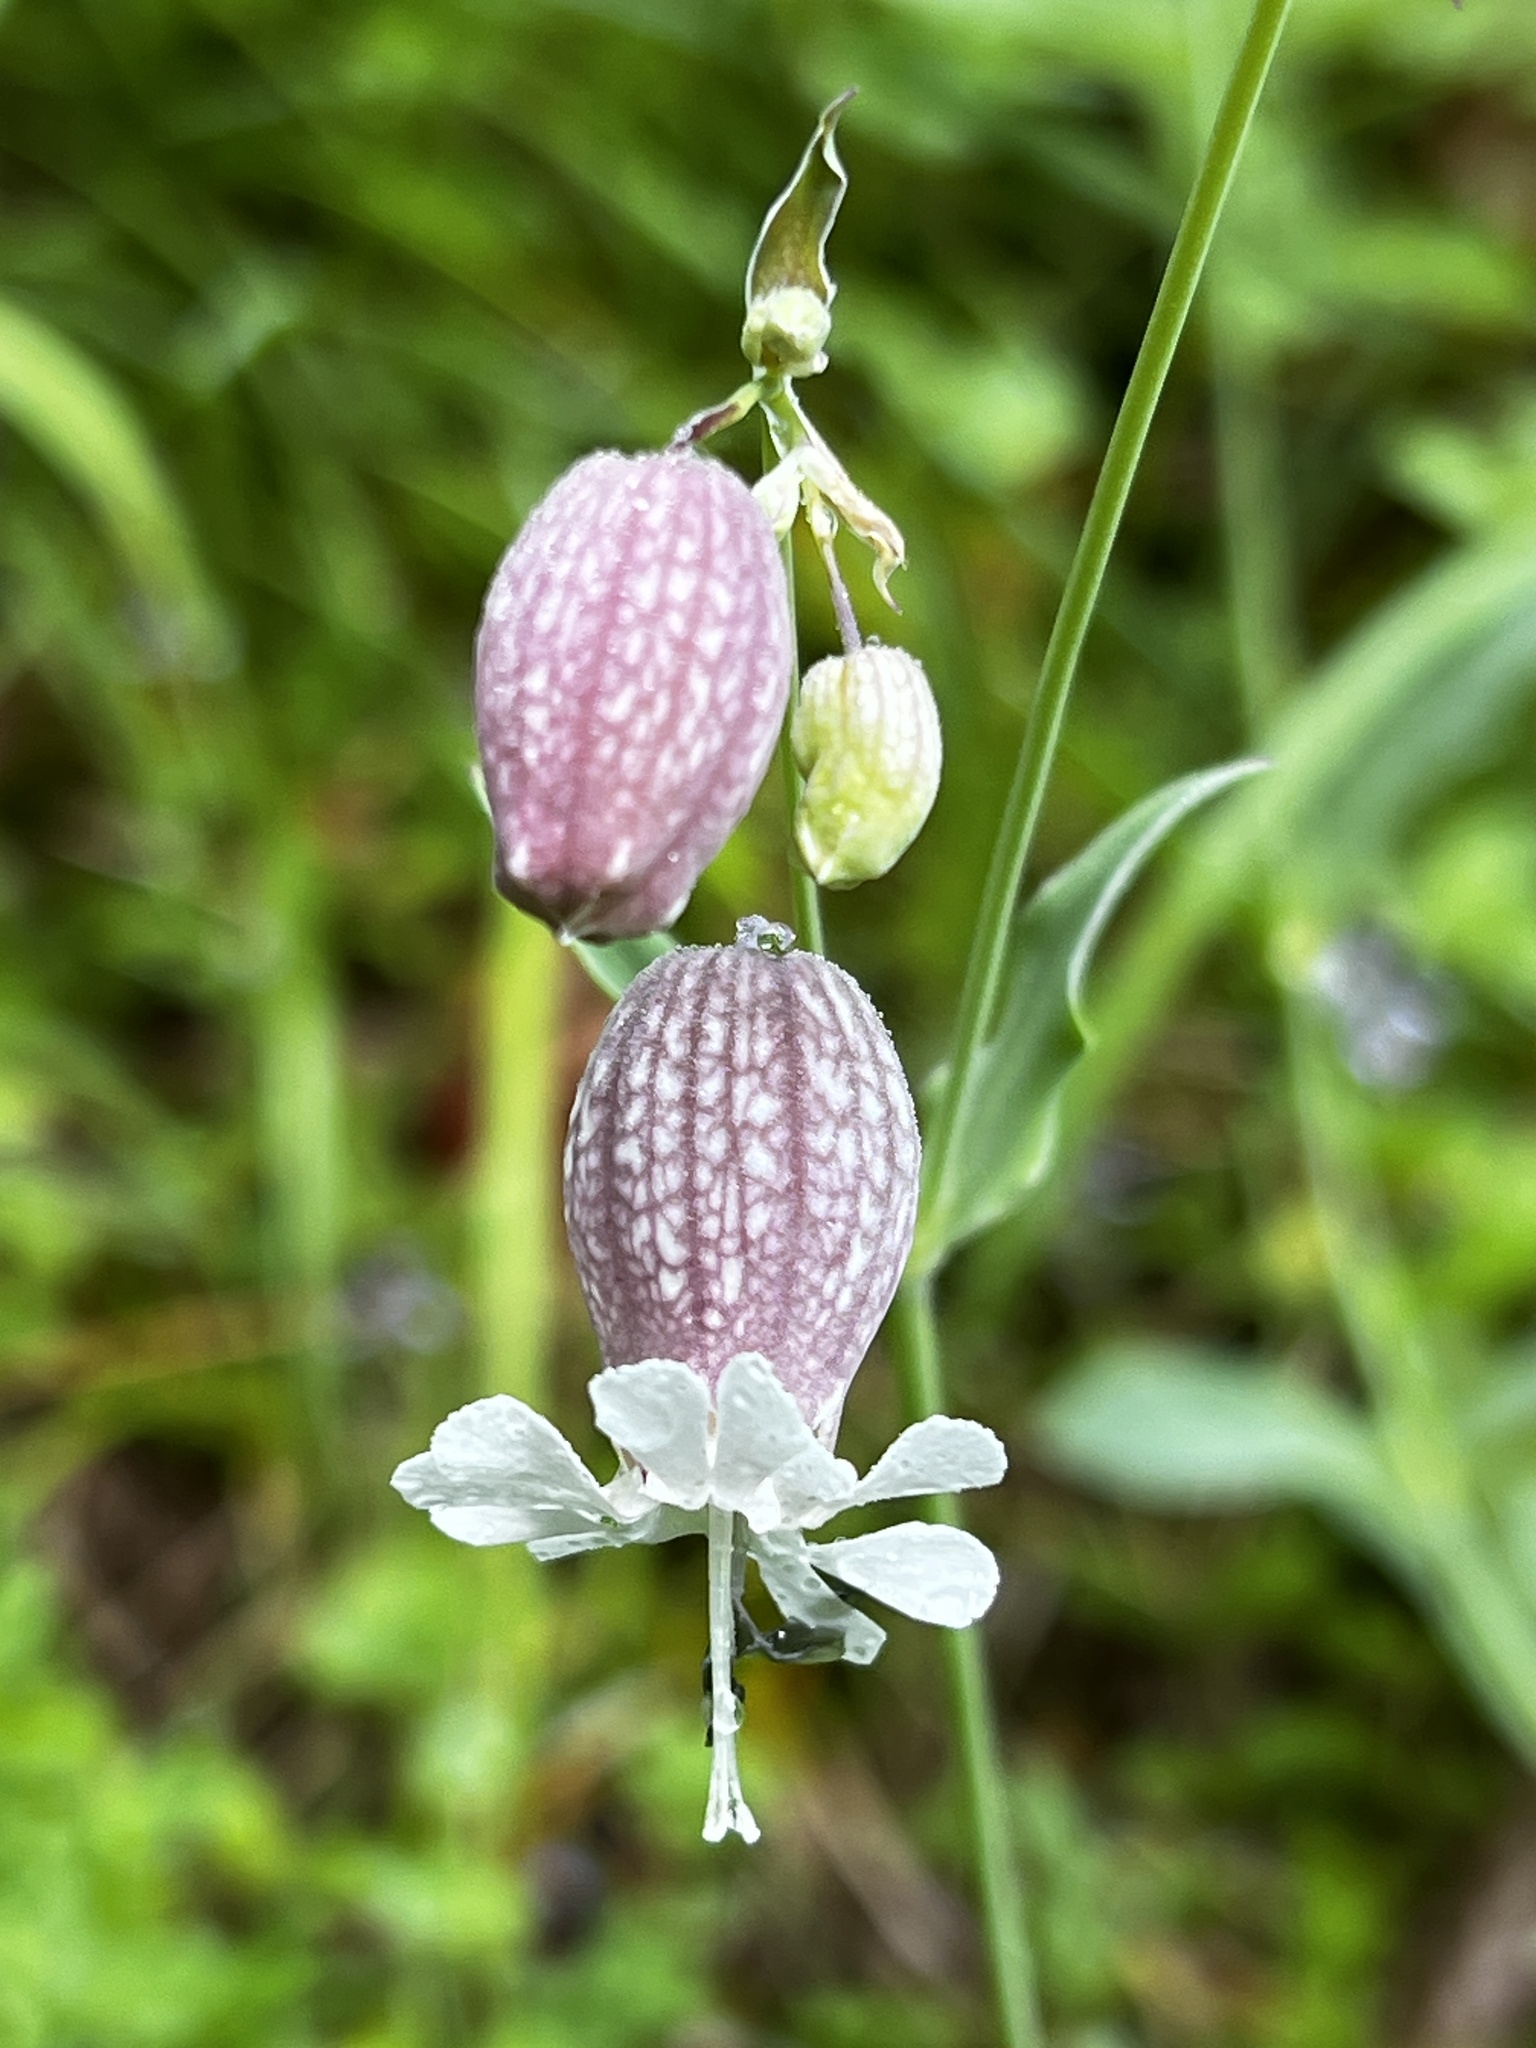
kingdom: Plantae
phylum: Tracheophyta
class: Magnoliopsida
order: Caryophyllales
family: Caryophyllaceae
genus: Silene
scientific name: Silene vulgaris
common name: Bladder campion
